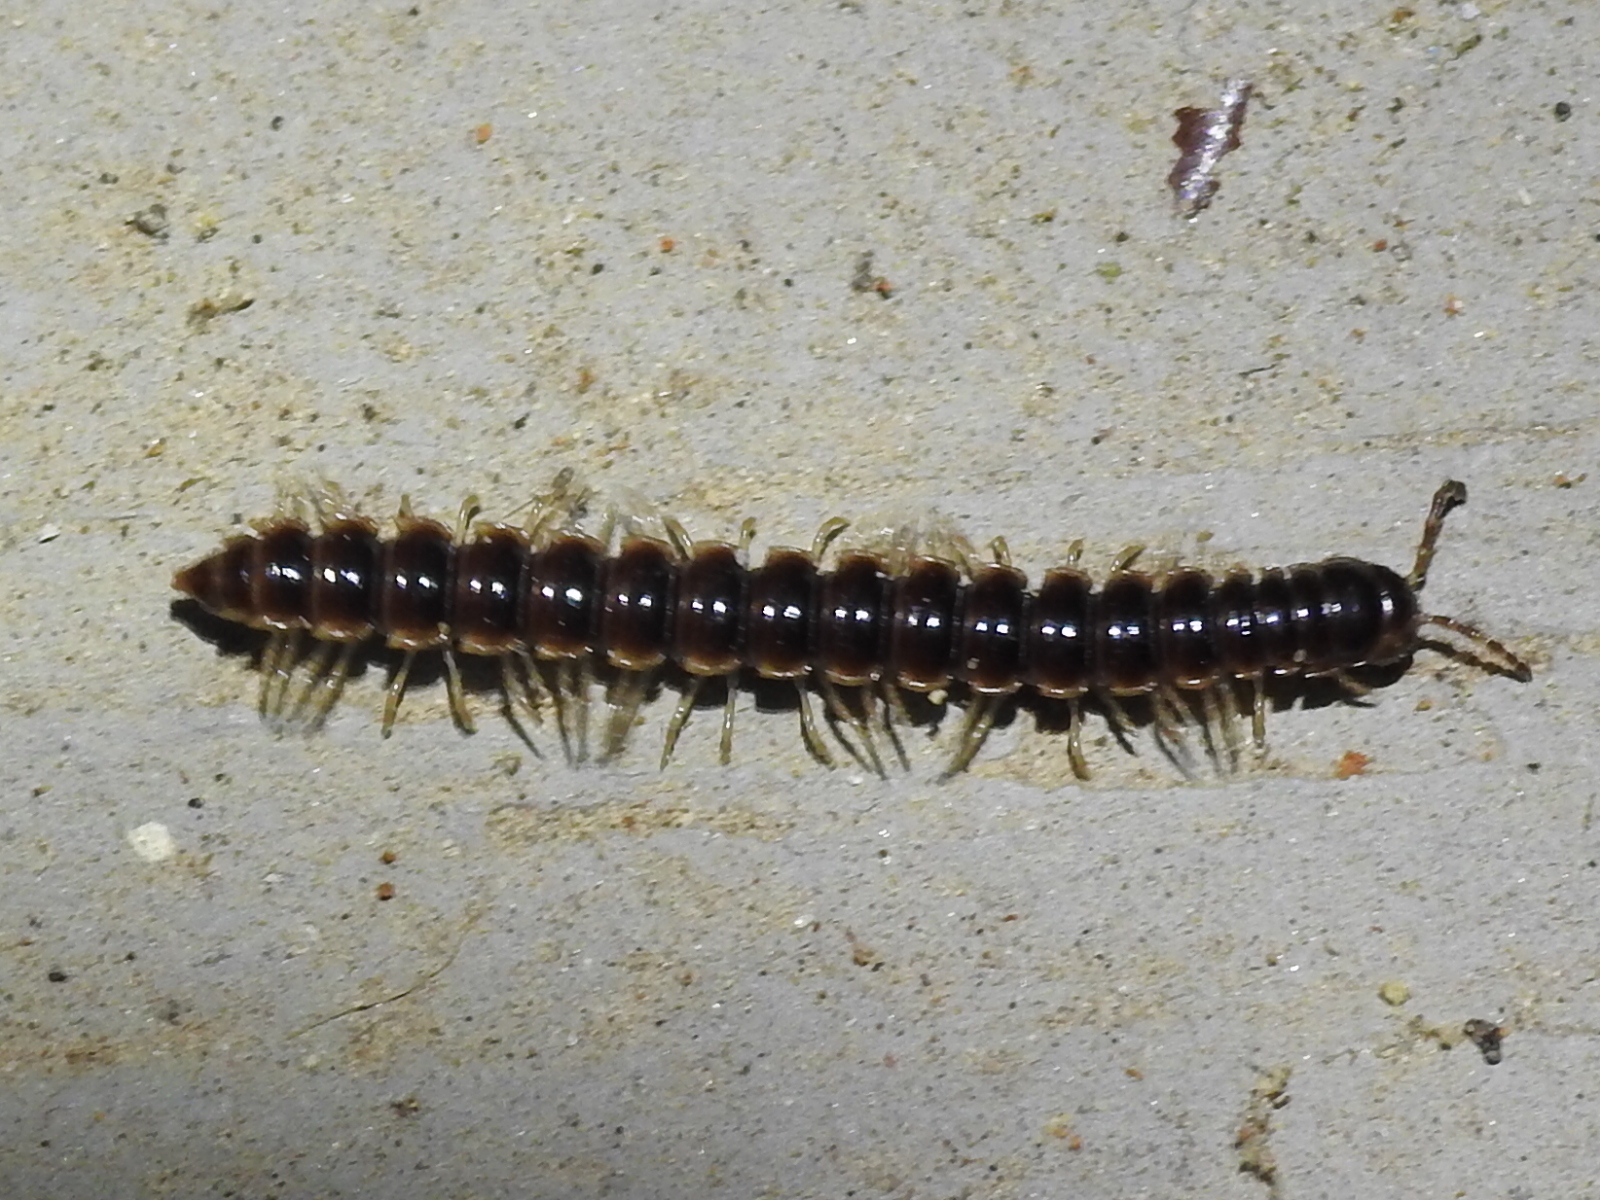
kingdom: Animalia
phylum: Arthropoda
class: Diplopoda
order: Polydesmida
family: Paradoxosomatidae
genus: Oxidus
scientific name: Oxidus gracilis
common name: Greenhouse millipede
